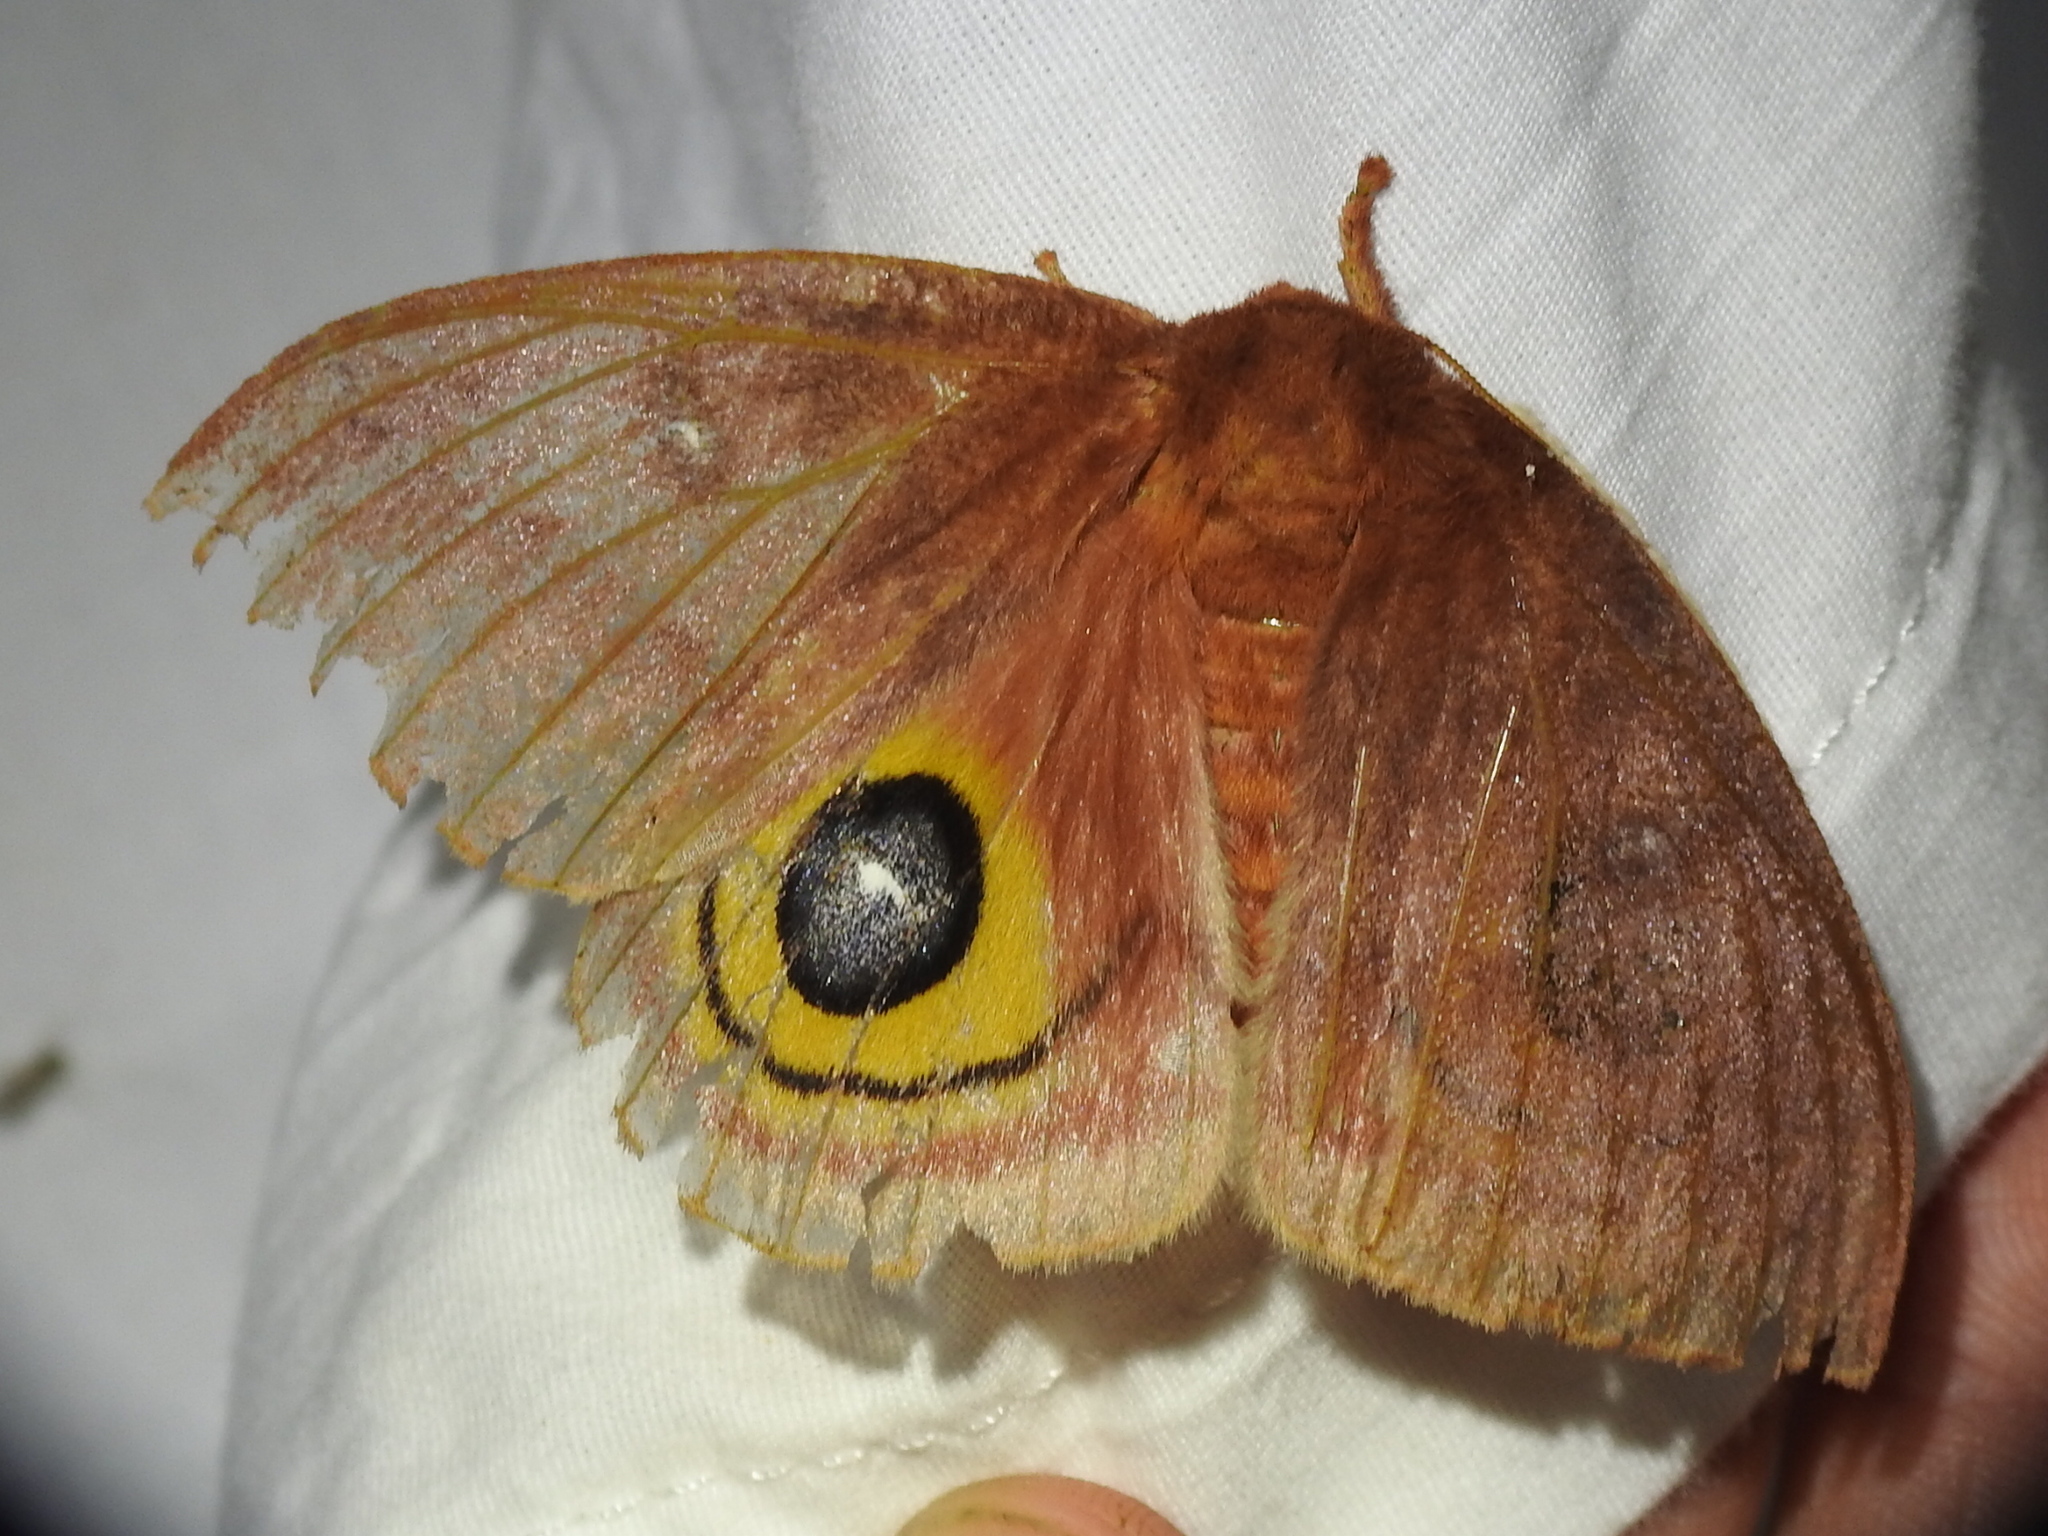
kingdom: Animalia
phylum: Arthropoda
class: Insecta
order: Lepidoptera
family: Saturniidae
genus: Automeris
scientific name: Automeris io
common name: Io moth
